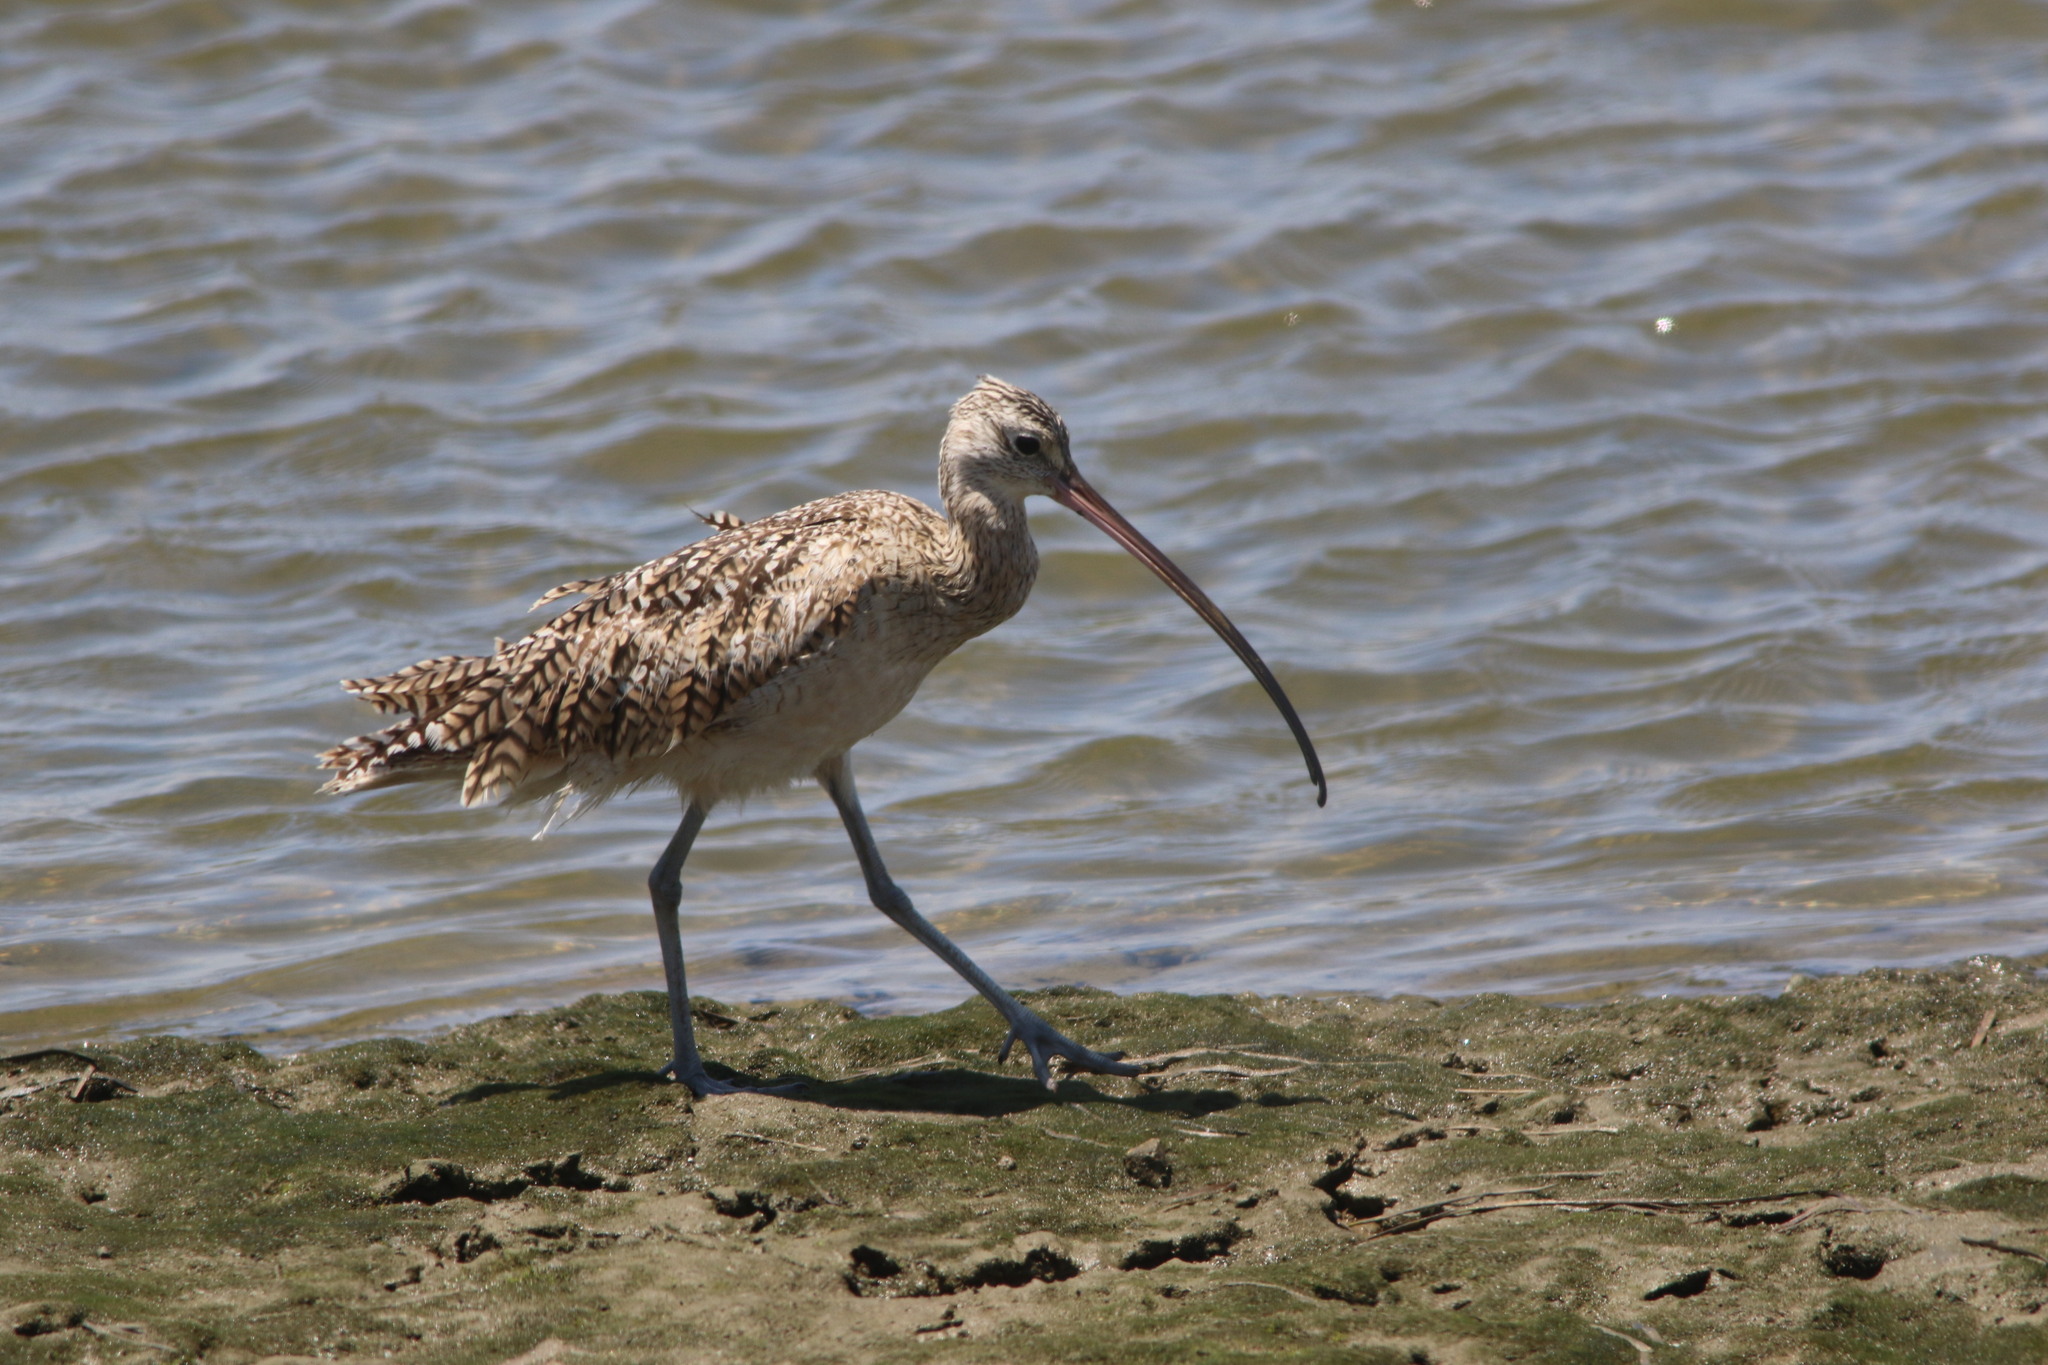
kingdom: Animalia
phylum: Chordata
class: Aves
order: Charadriiformes
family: Scolopacidae
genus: Numenius
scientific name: Numenius americanus
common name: Long-billed curlew
